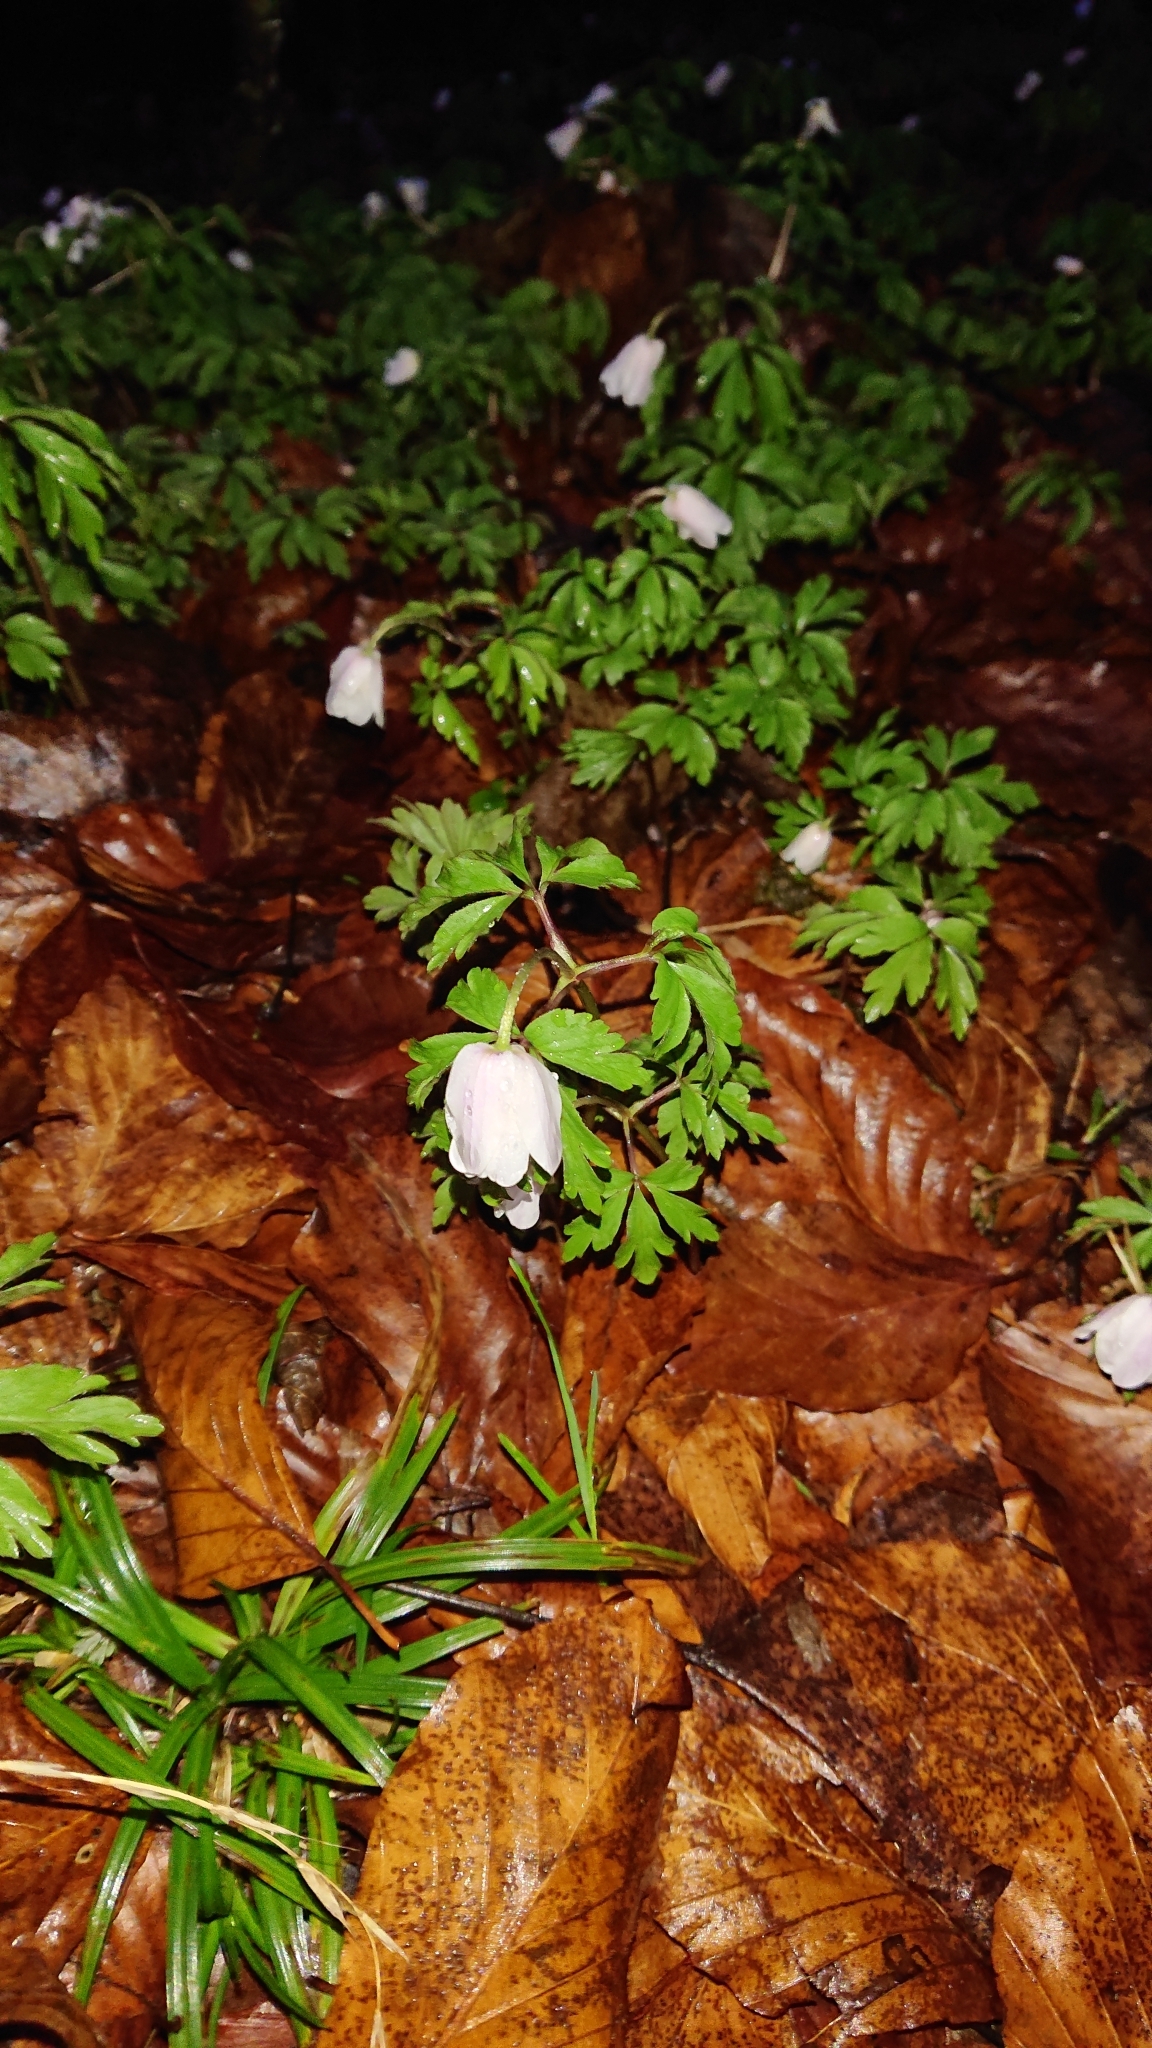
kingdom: Plantae
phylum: Tracheophyta
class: Magnoliopsida
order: Ranunculales
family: Ranunculaceae
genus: Anemone
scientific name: Anemone nemorosa
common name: Wood anemone
